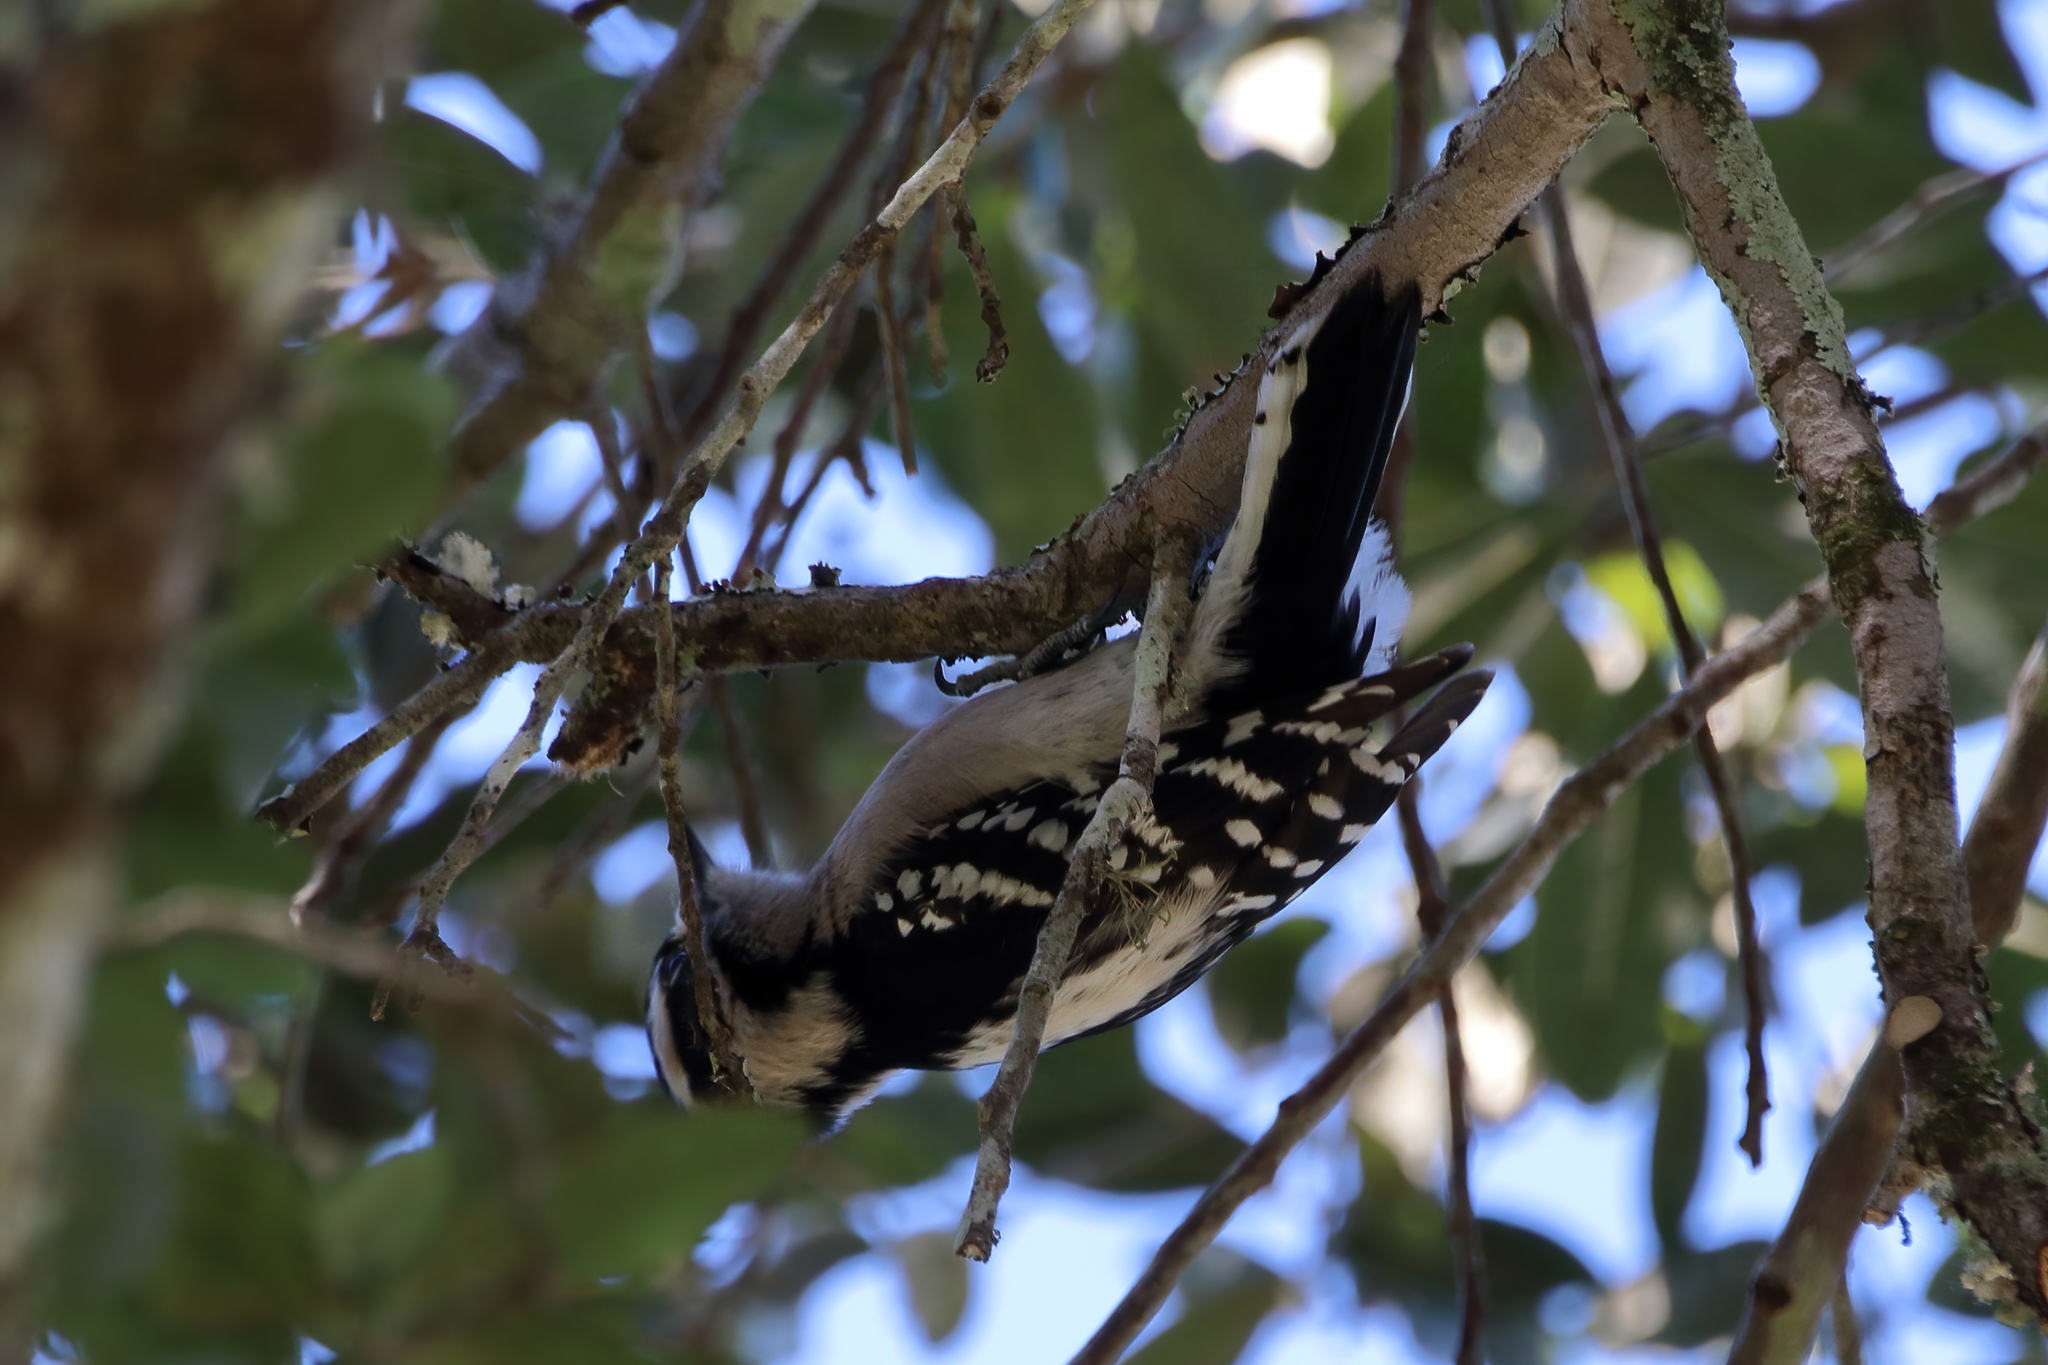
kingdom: Animalia
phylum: Chordata
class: Aves
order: Piciformes
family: Picidae
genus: Dryobates
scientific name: Dryobates pubescens
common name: Downy woodpecker
